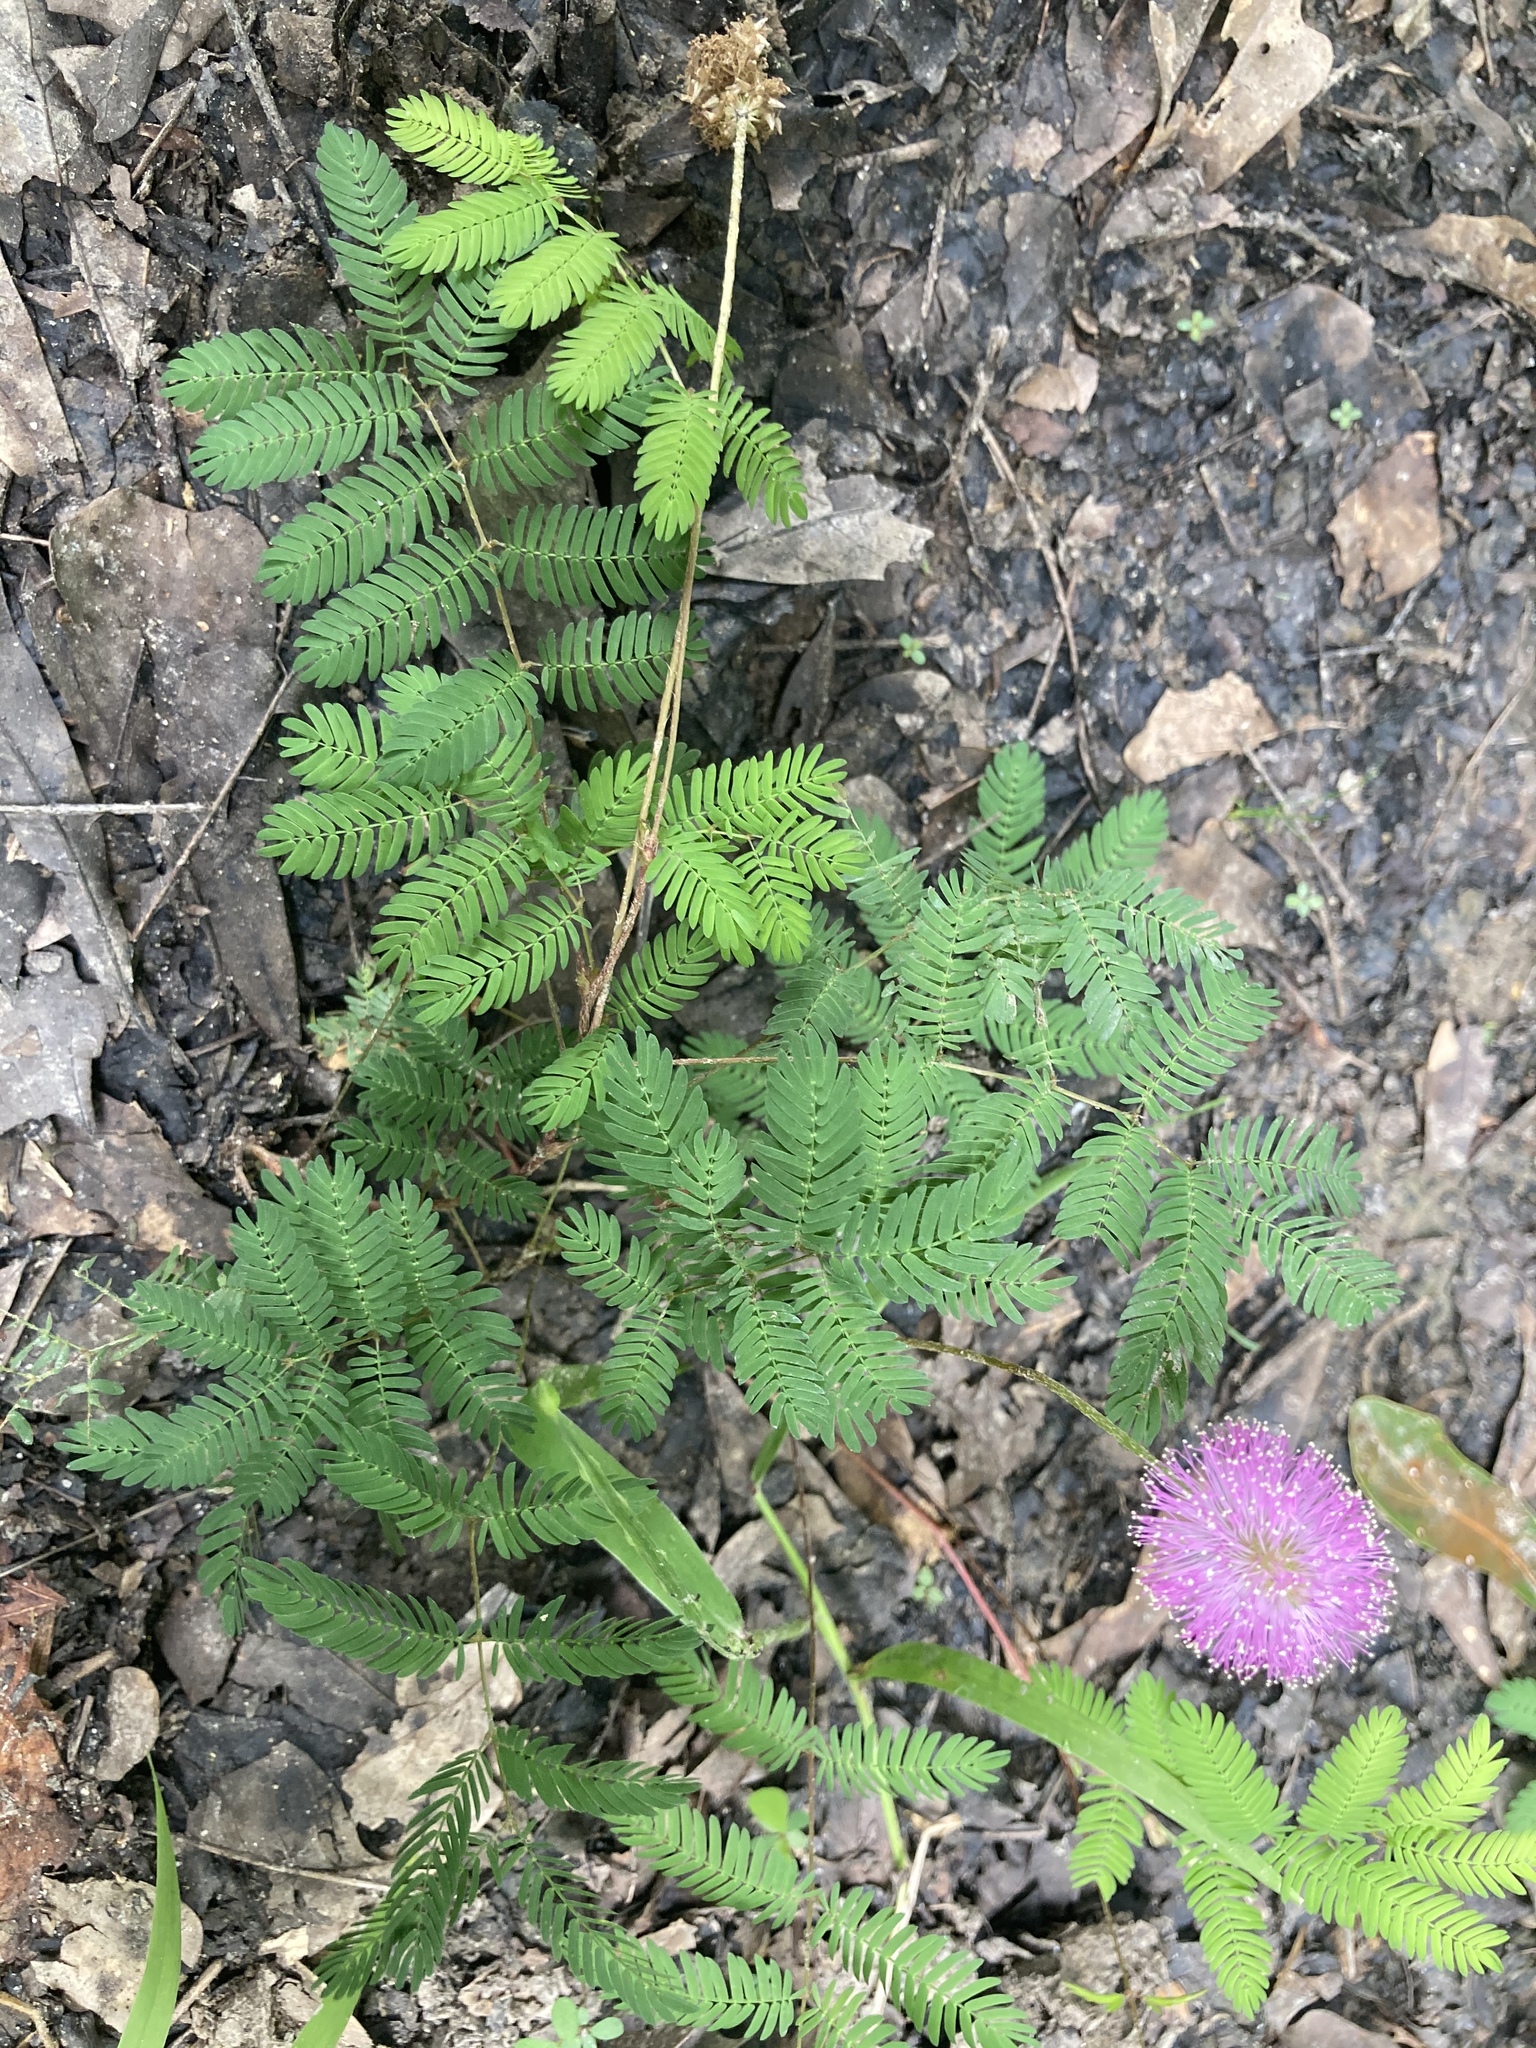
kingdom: Plantae
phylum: Tracheophyta
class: Magnoliopsida
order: Fabales
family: Fabaceae
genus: Mimosa
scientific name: Mimosa strigillosa
